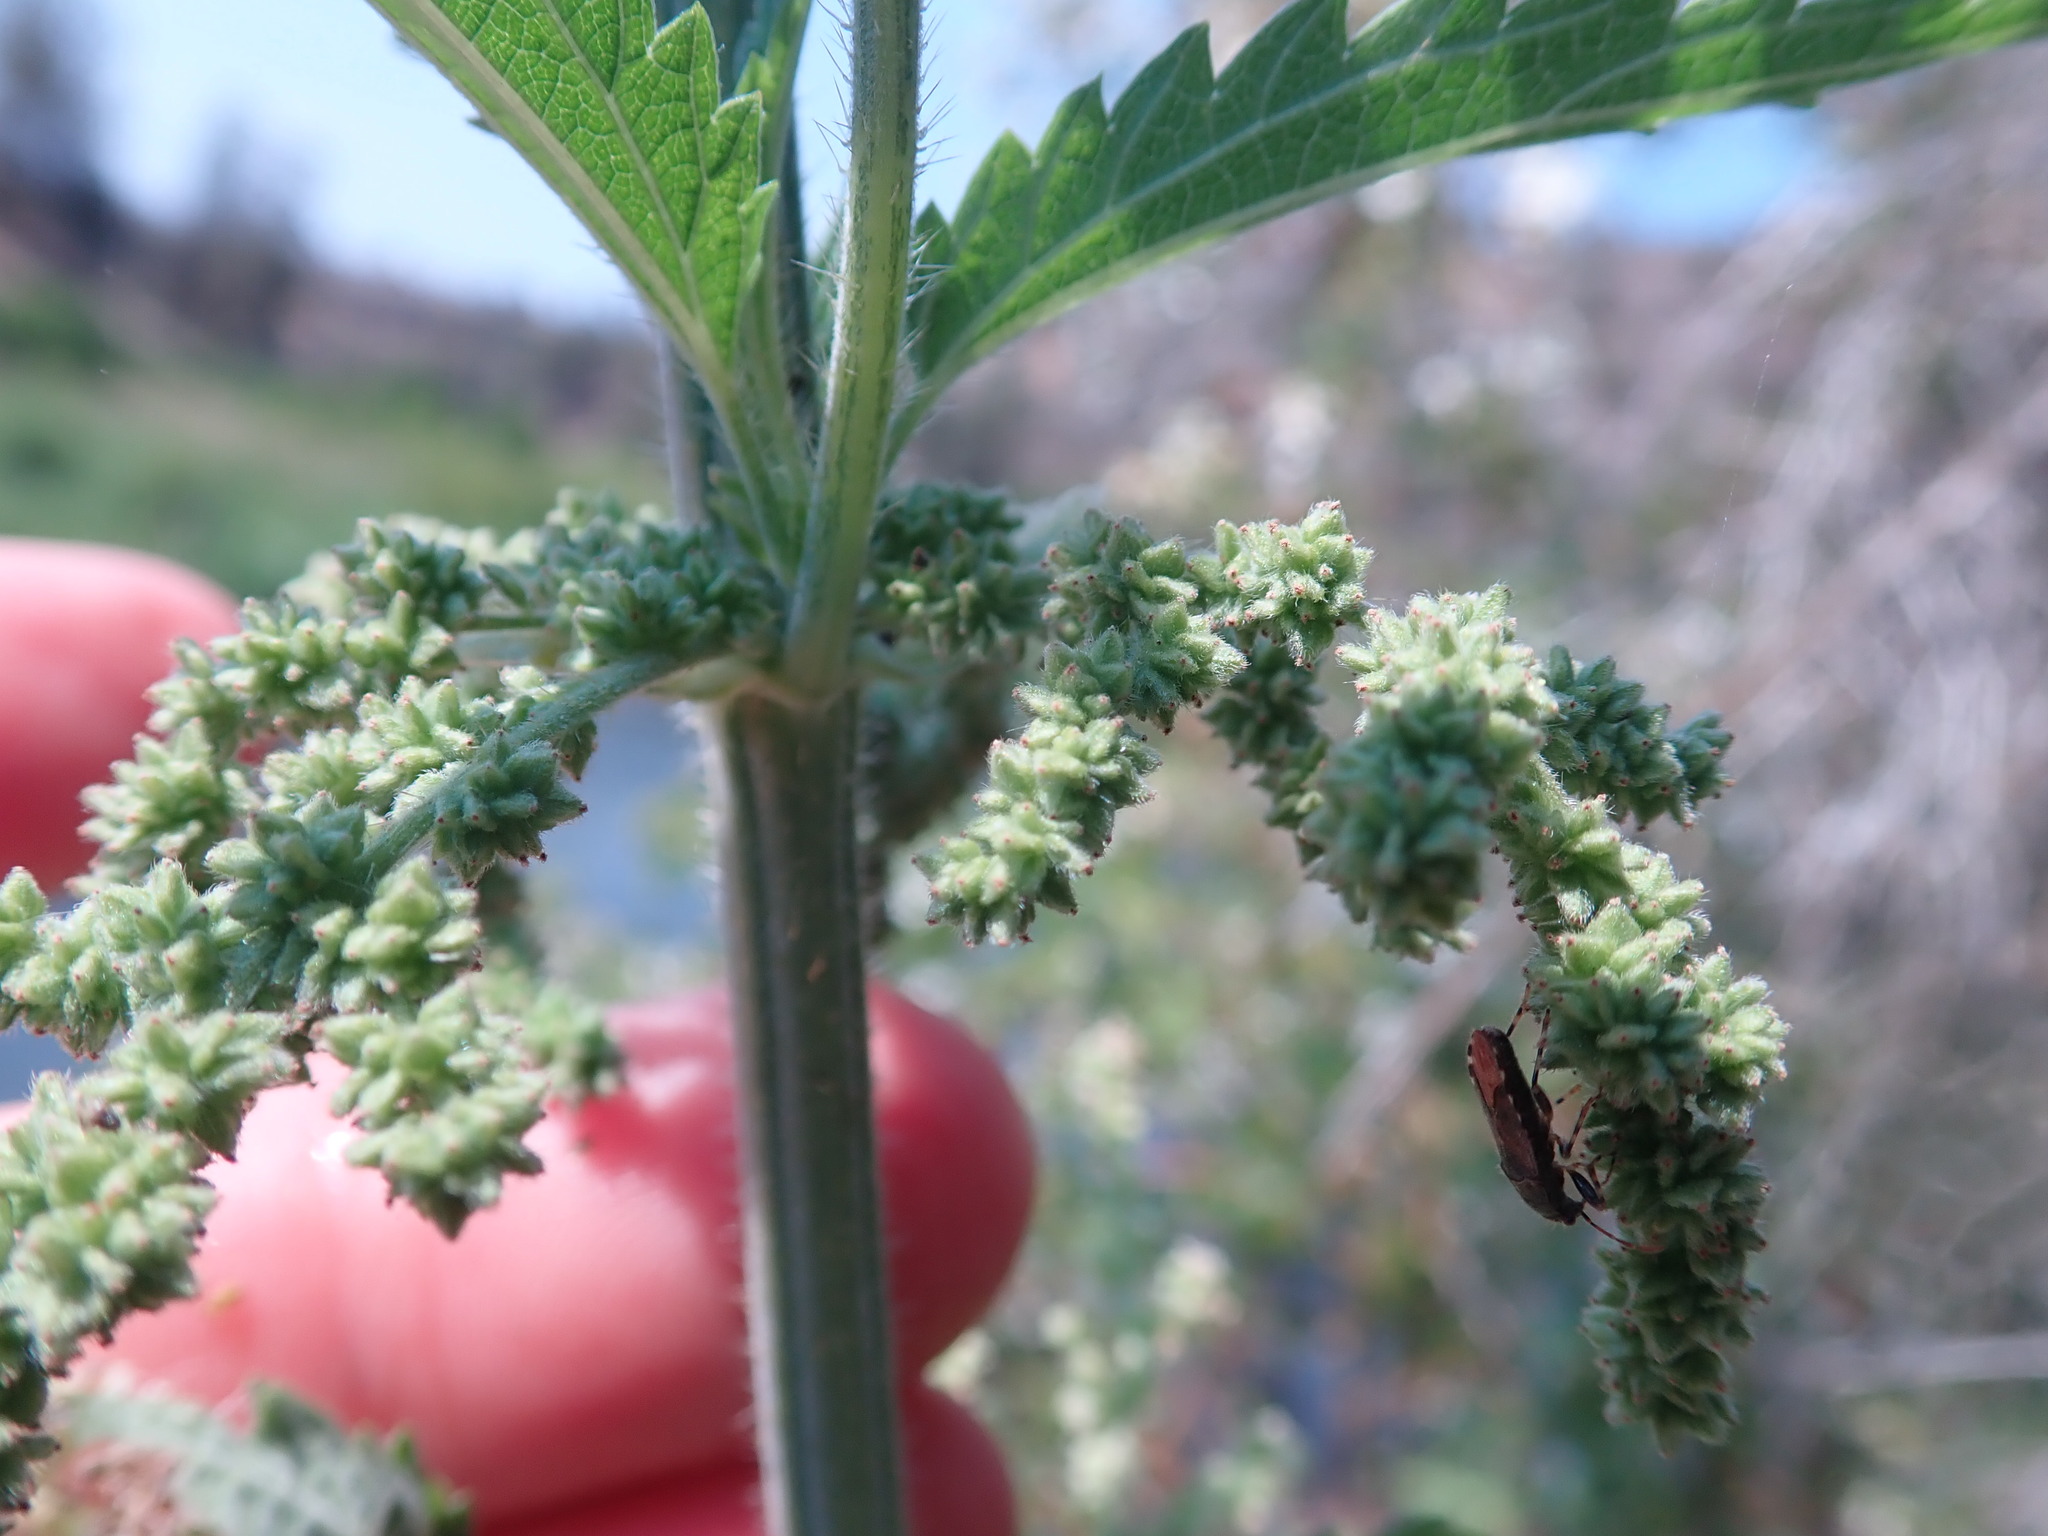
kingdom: Plantae
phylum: Tracheophyta
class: Magnoliopsida
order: Rosales
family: Urticaceae
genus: Urtica
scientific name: Urtica gracilis
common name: Slender stinging nettle
